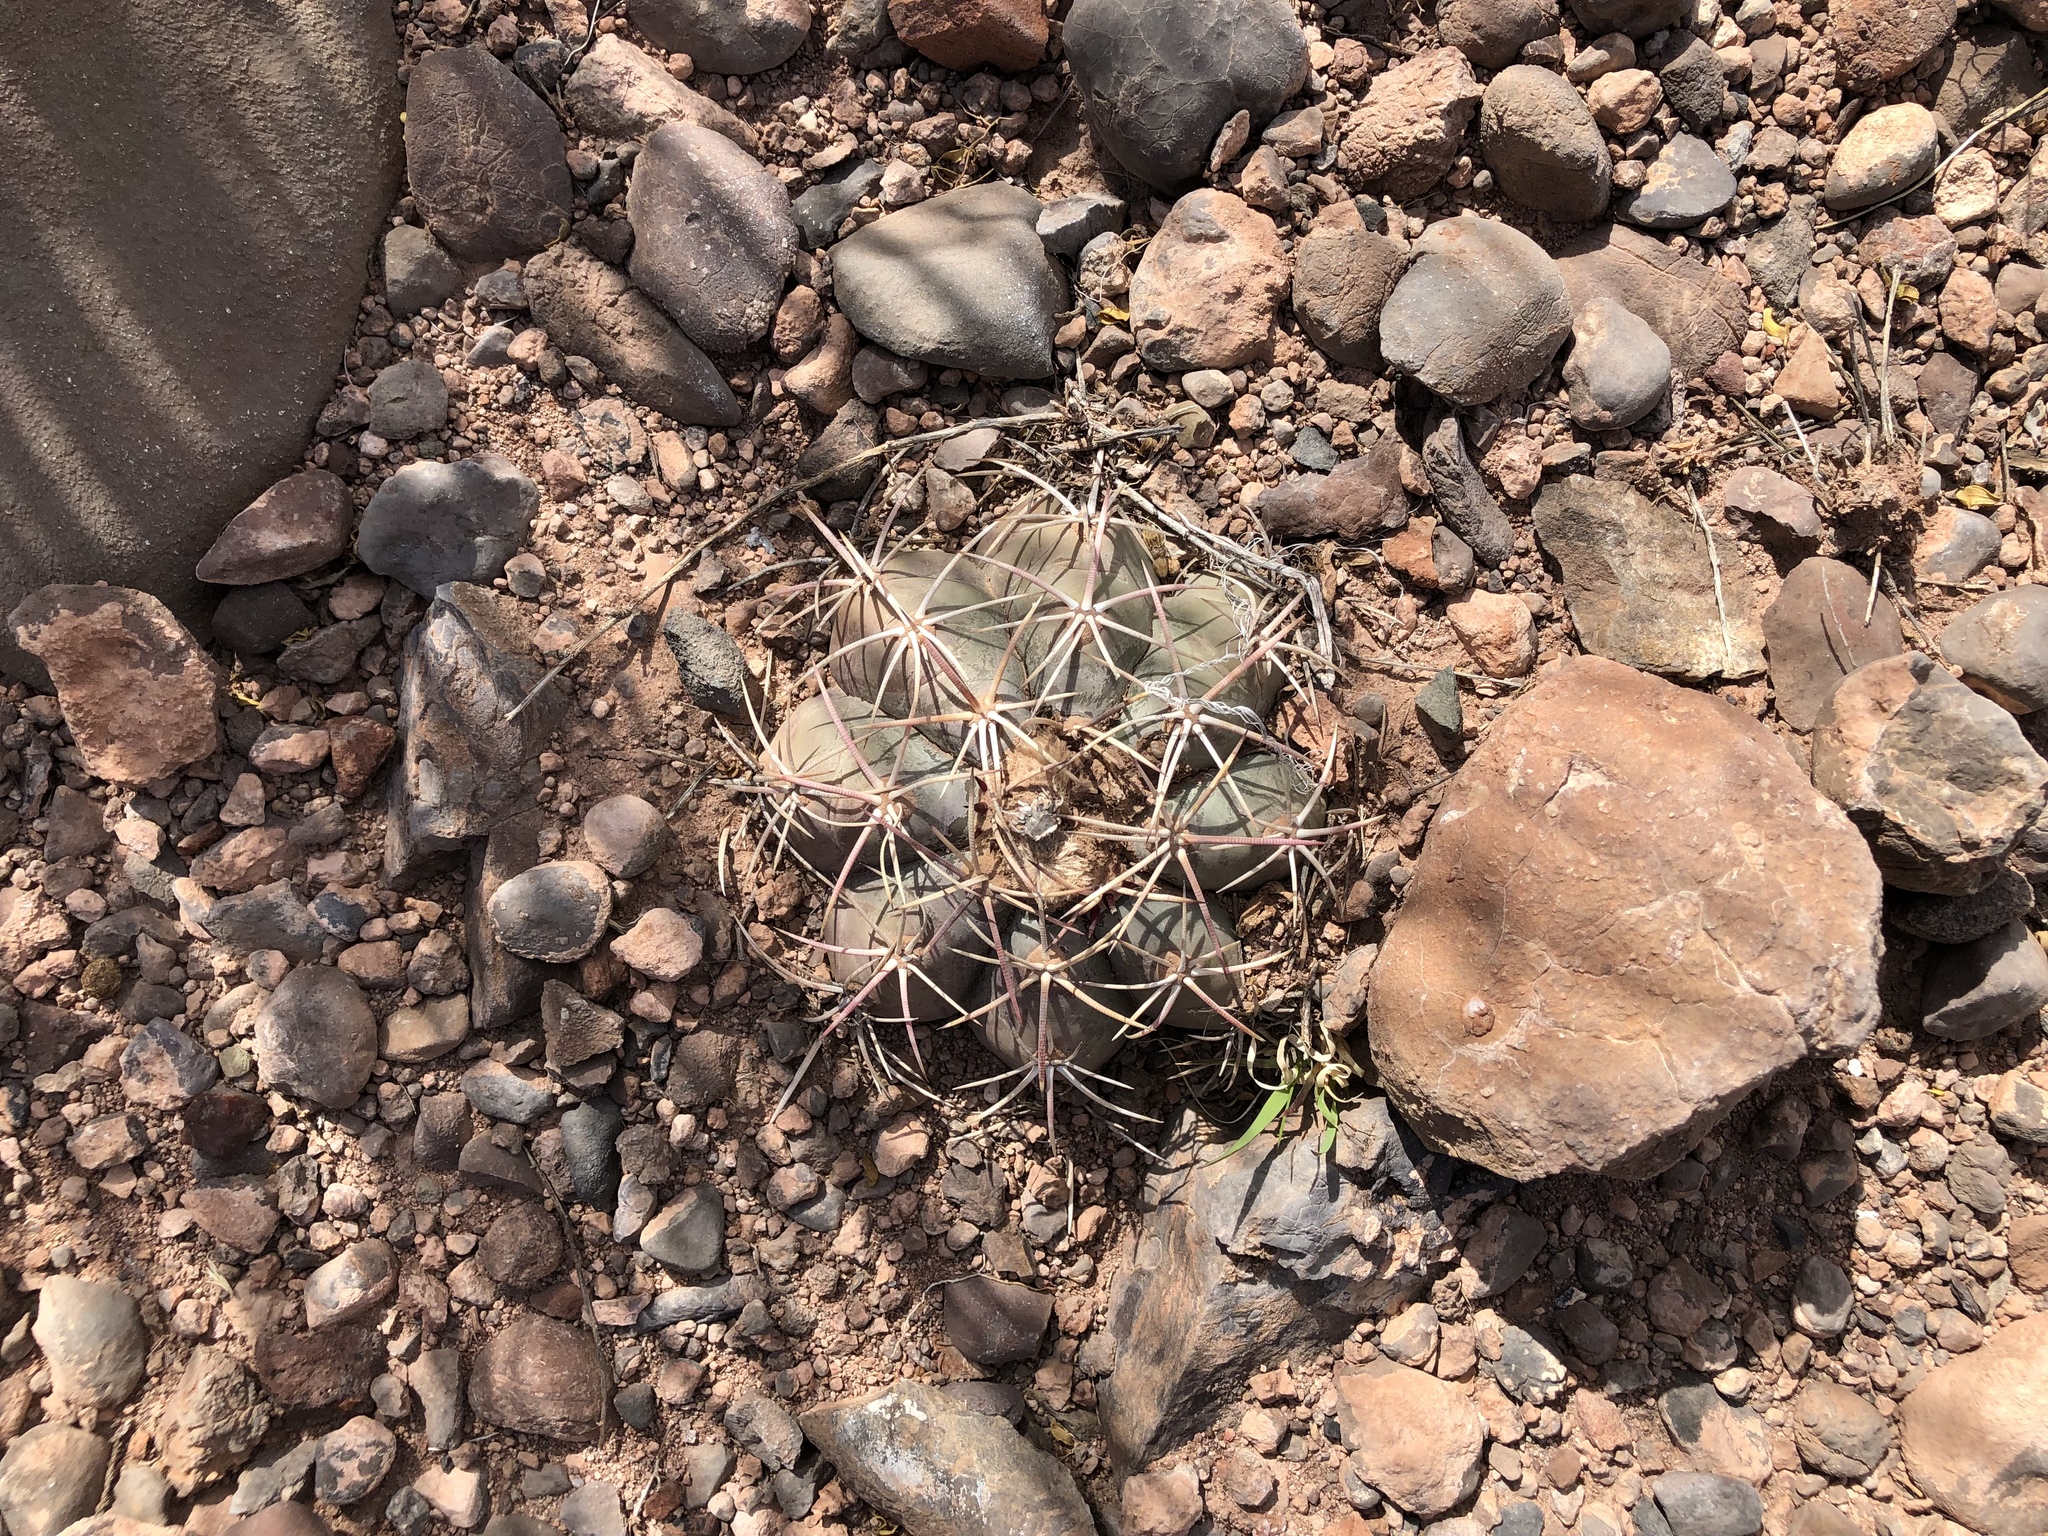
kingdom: Plantae
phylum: Tracheophyta
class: Magnoliopsida
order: Caryophyllales
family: Cactaceae
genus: Echinocactus
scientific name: Echinocactus horizonthalonius
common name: Devilshead
